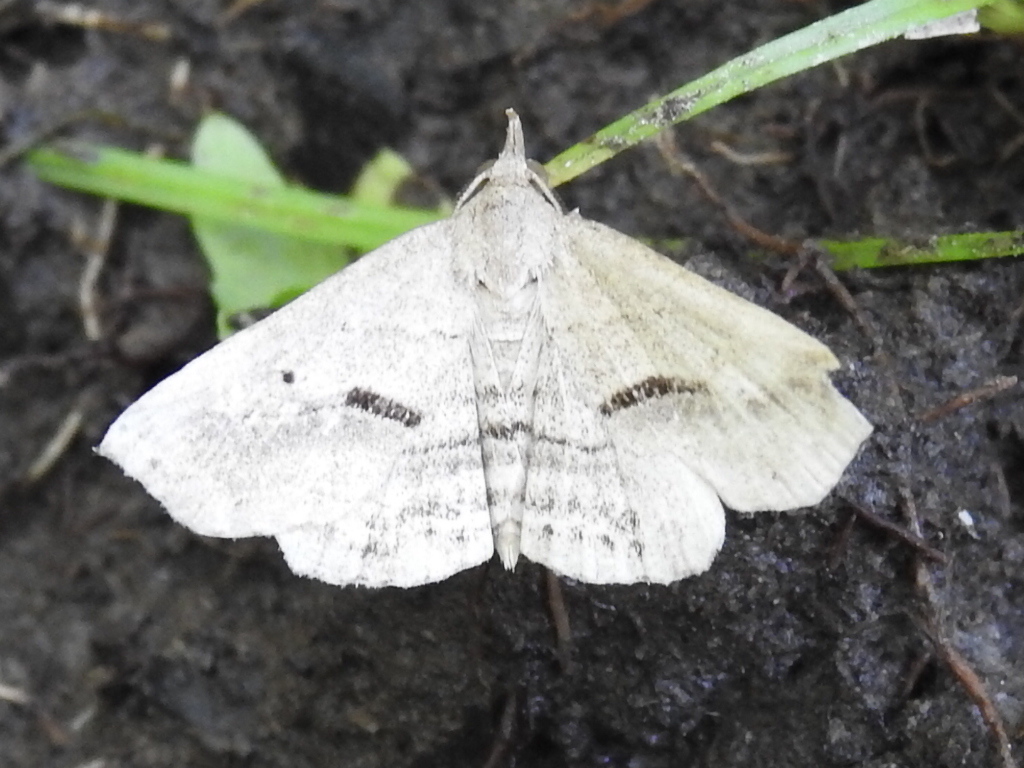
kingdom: Animalia
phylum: Arthropoda
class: Insecta
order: Lepidoptera
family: Erebidae
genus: Spargaloma
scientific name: Spargaloma perditalis
